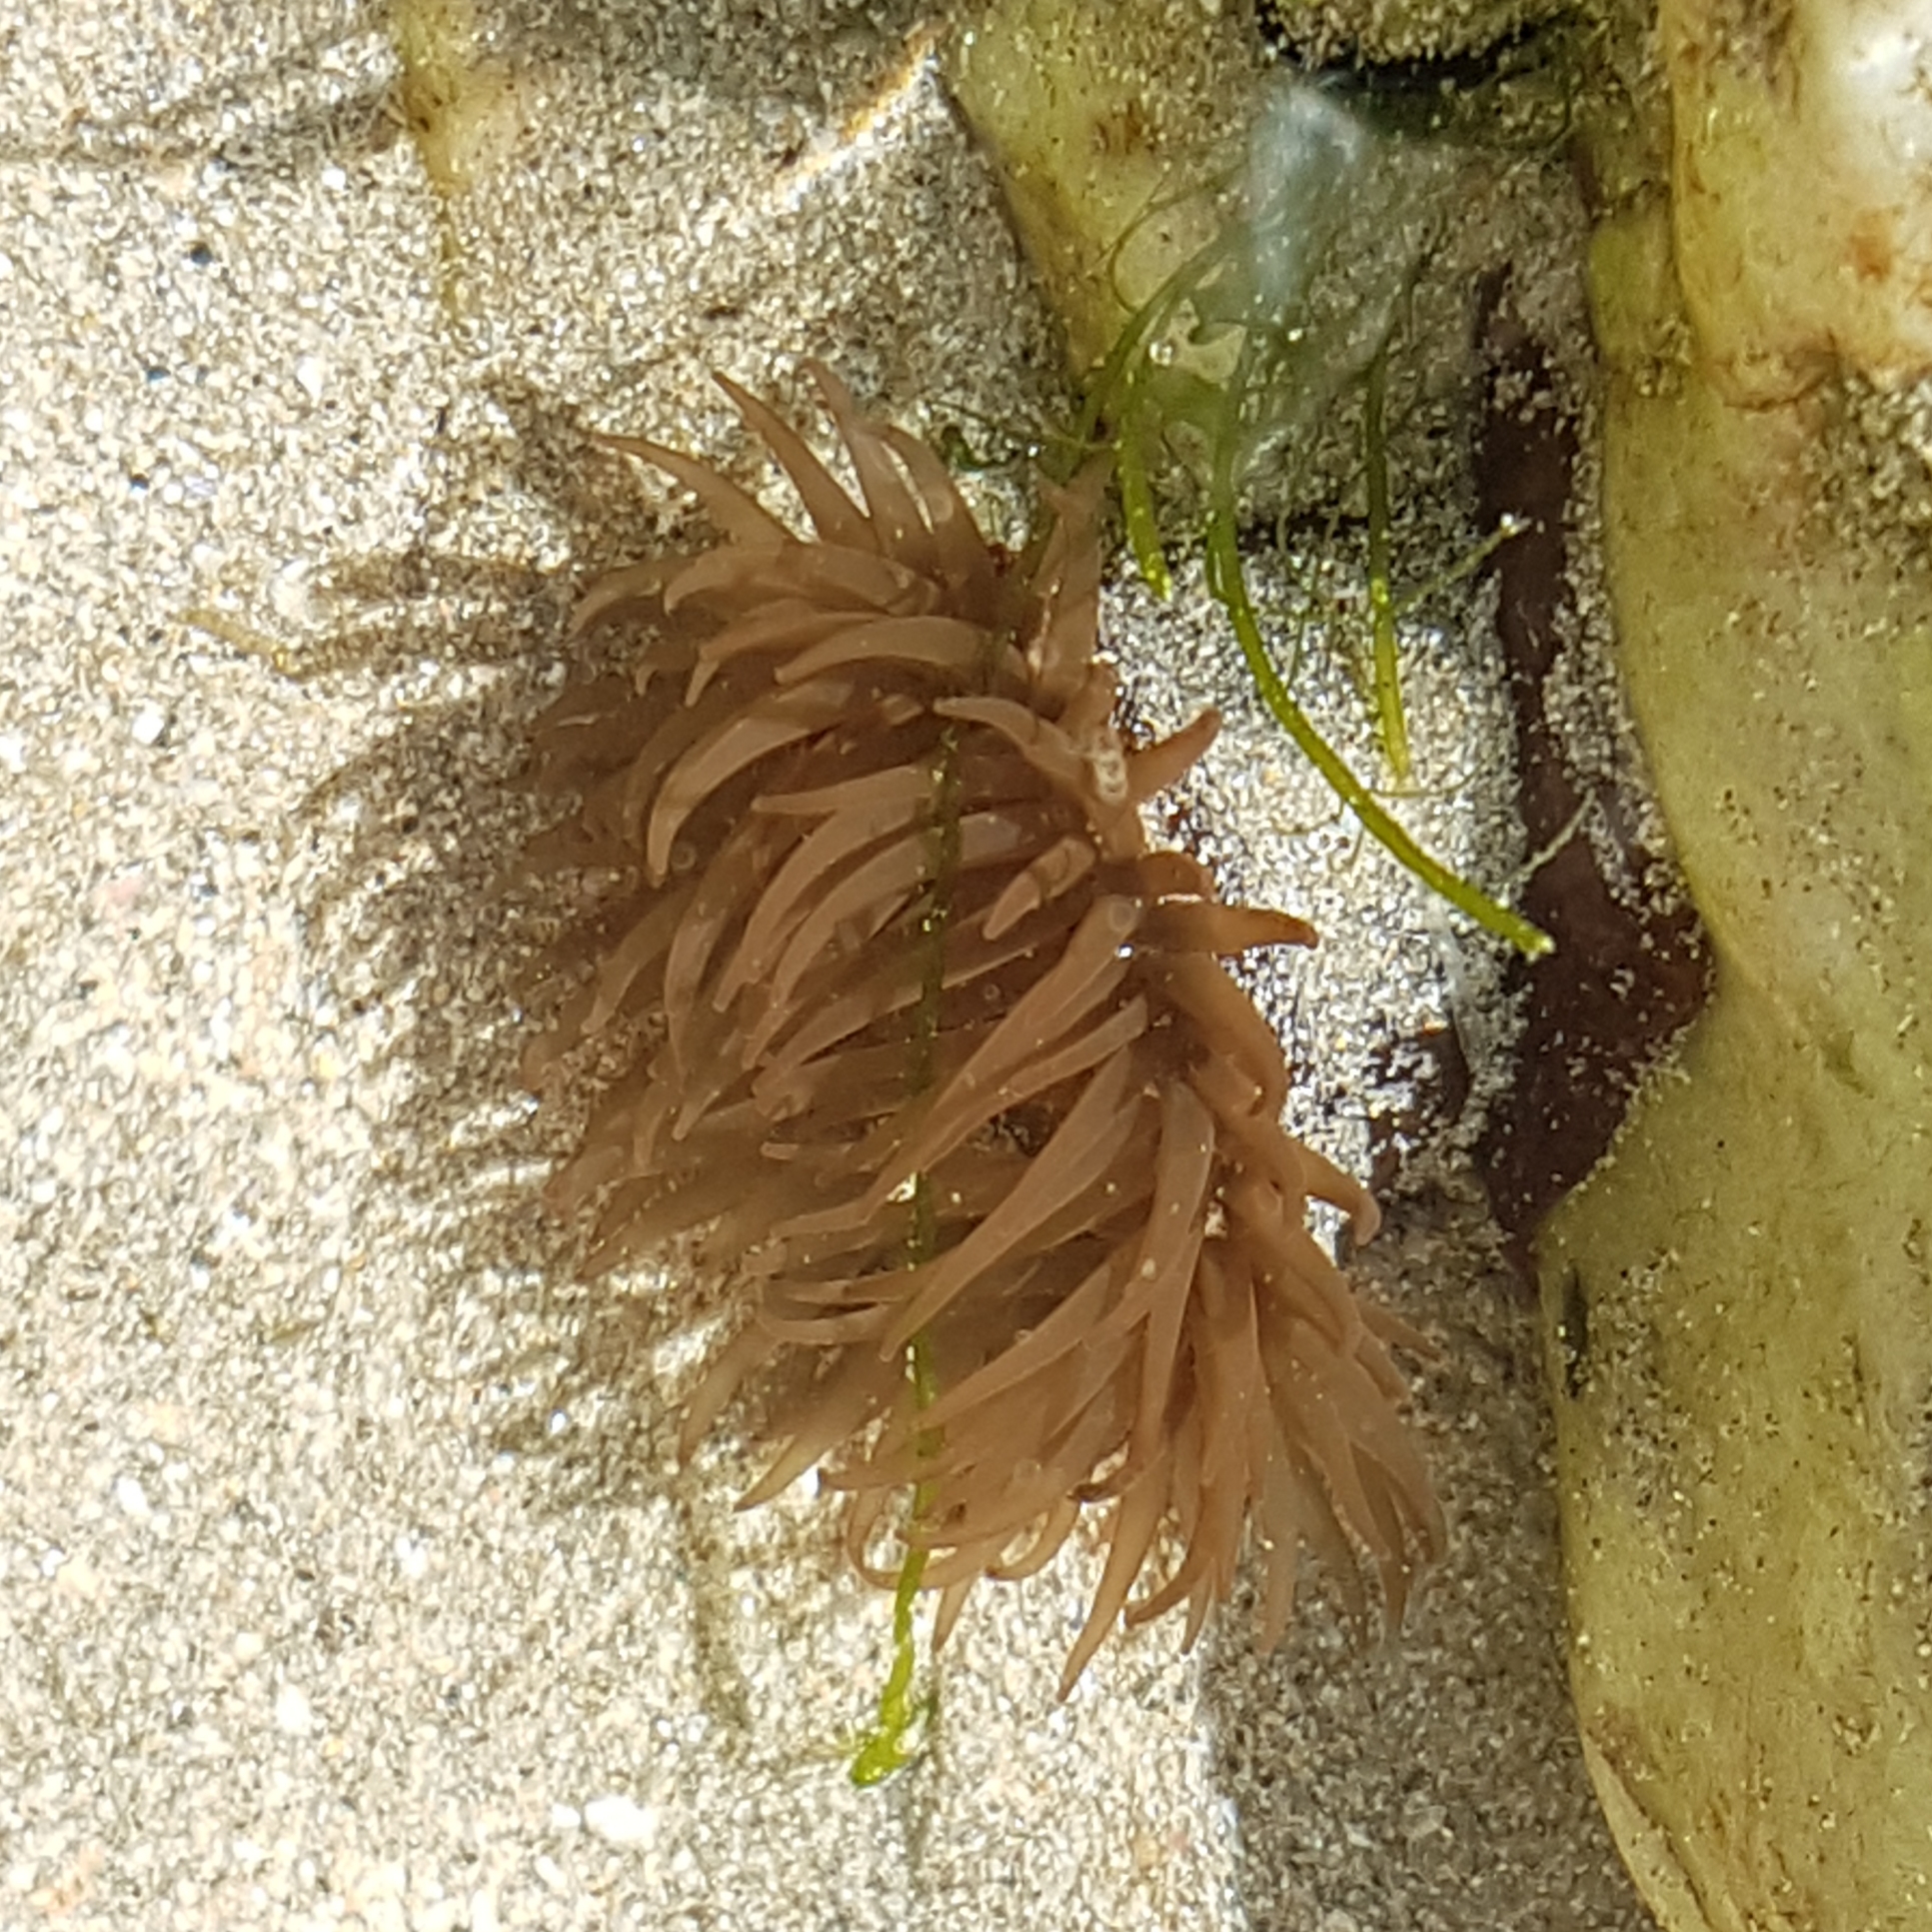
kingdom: Animalia
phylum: Cnidaria
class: Anthozoa
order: Actiniaria
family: Actiniidae
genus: Actinia
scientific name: Actinia equina
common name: Beadlet anemone
